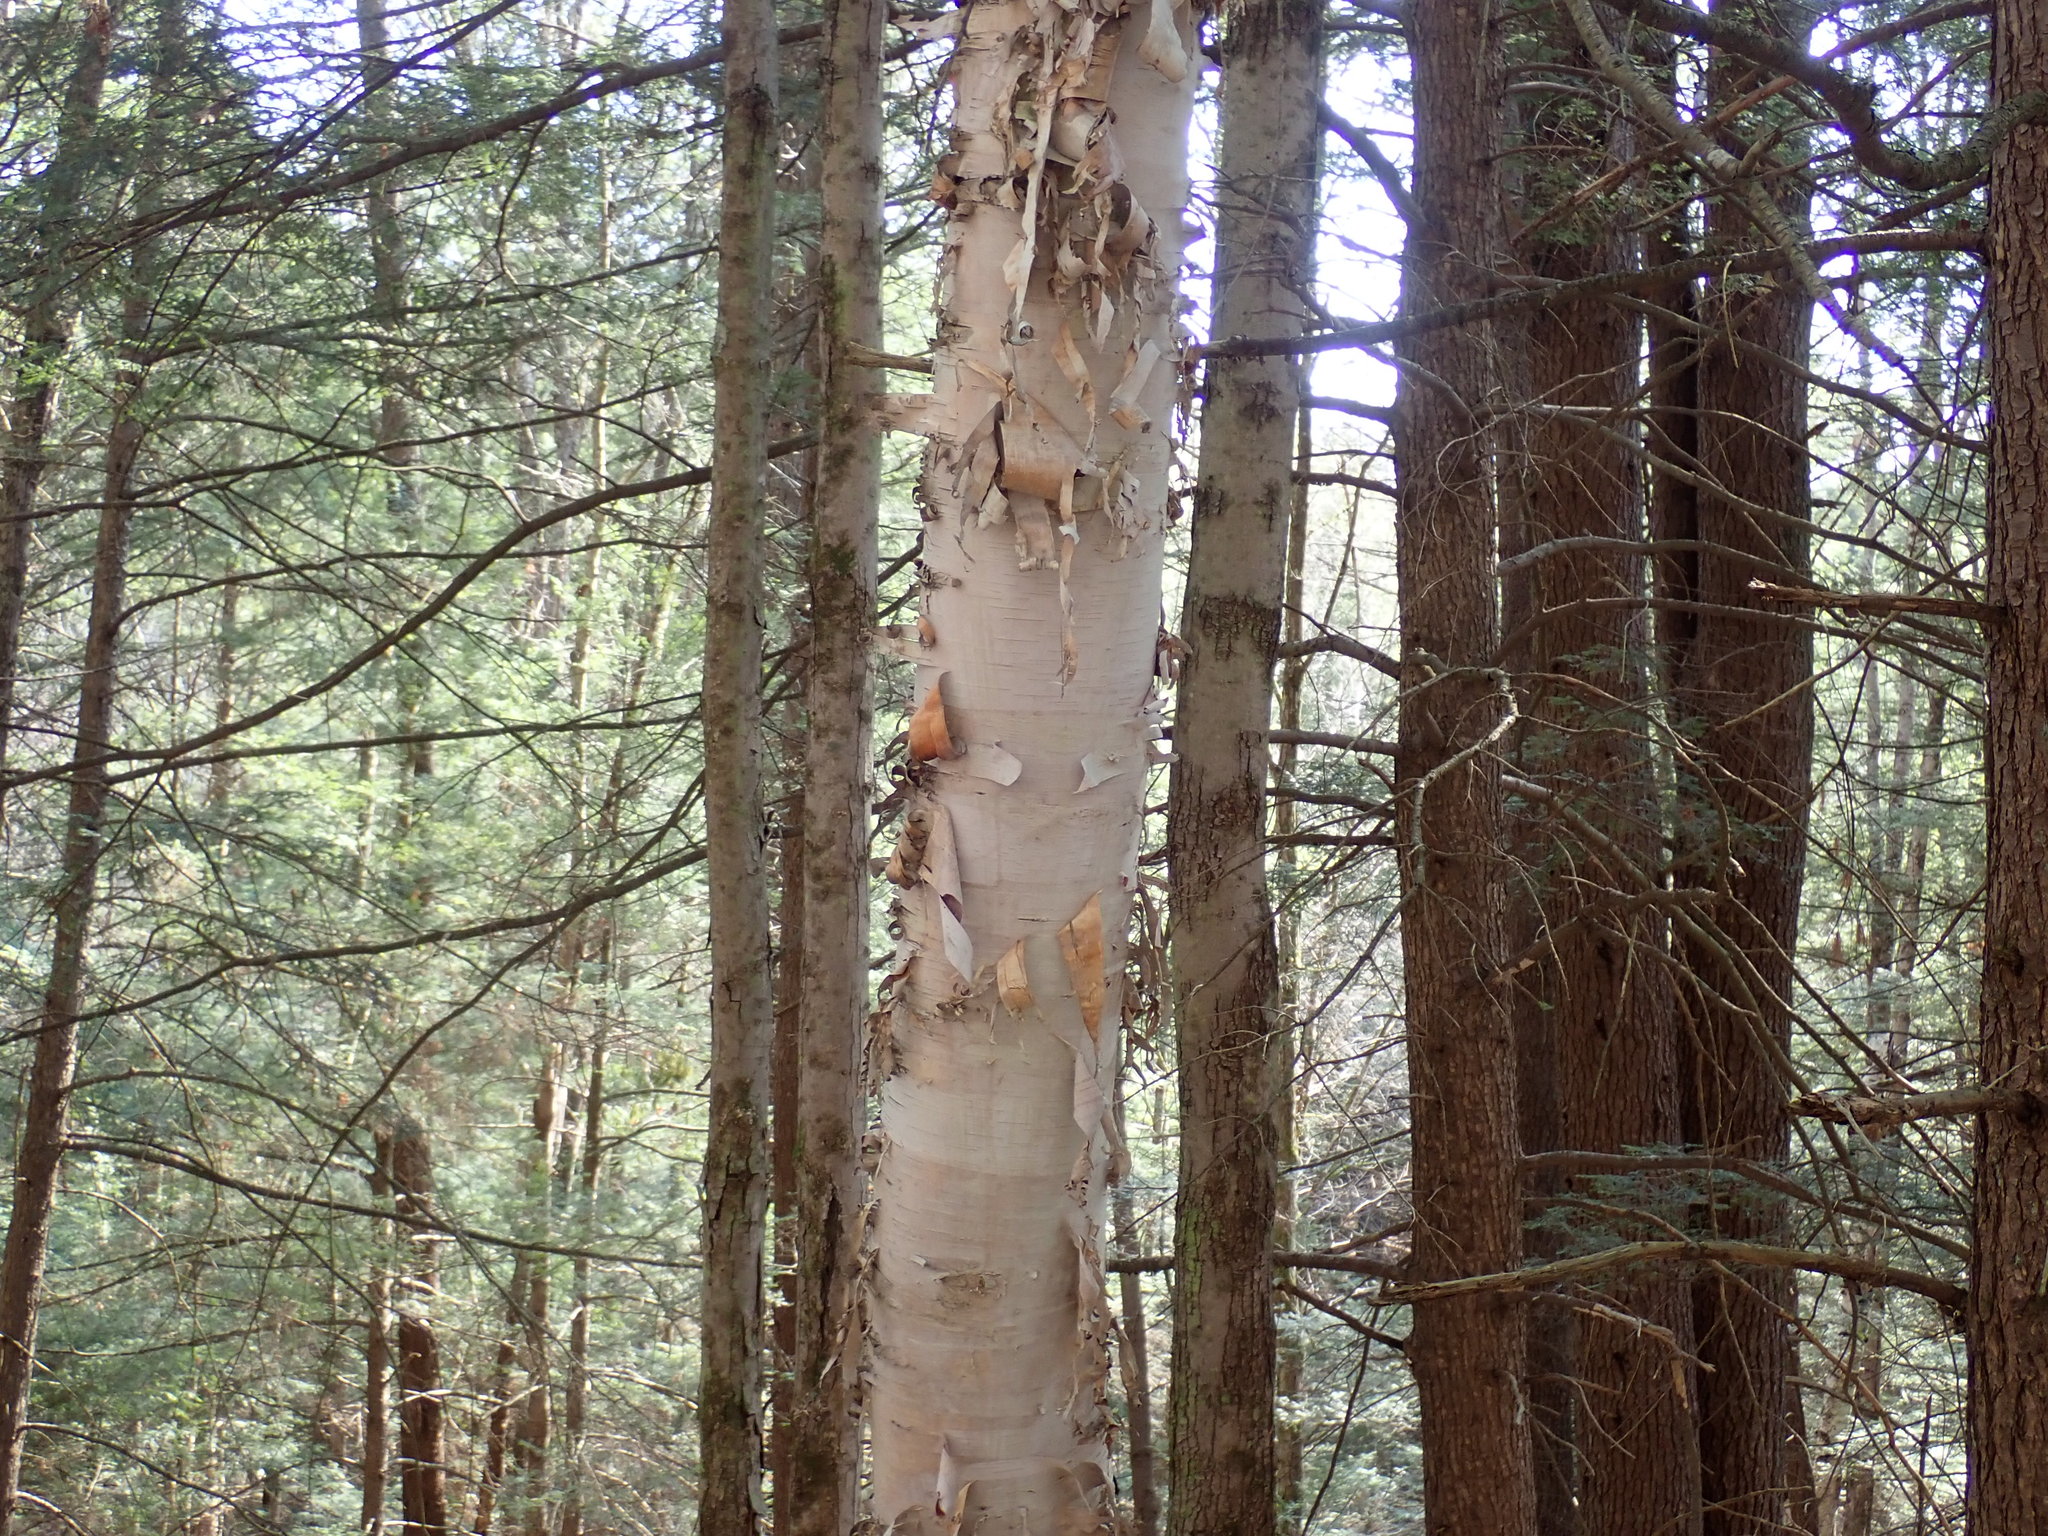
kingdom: Plantae
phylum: Tracheophyta
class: Magnoliopsida
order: Fagales
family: Betulaceae
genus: Betula
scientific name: Betula papyrifera
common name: Paper birch
